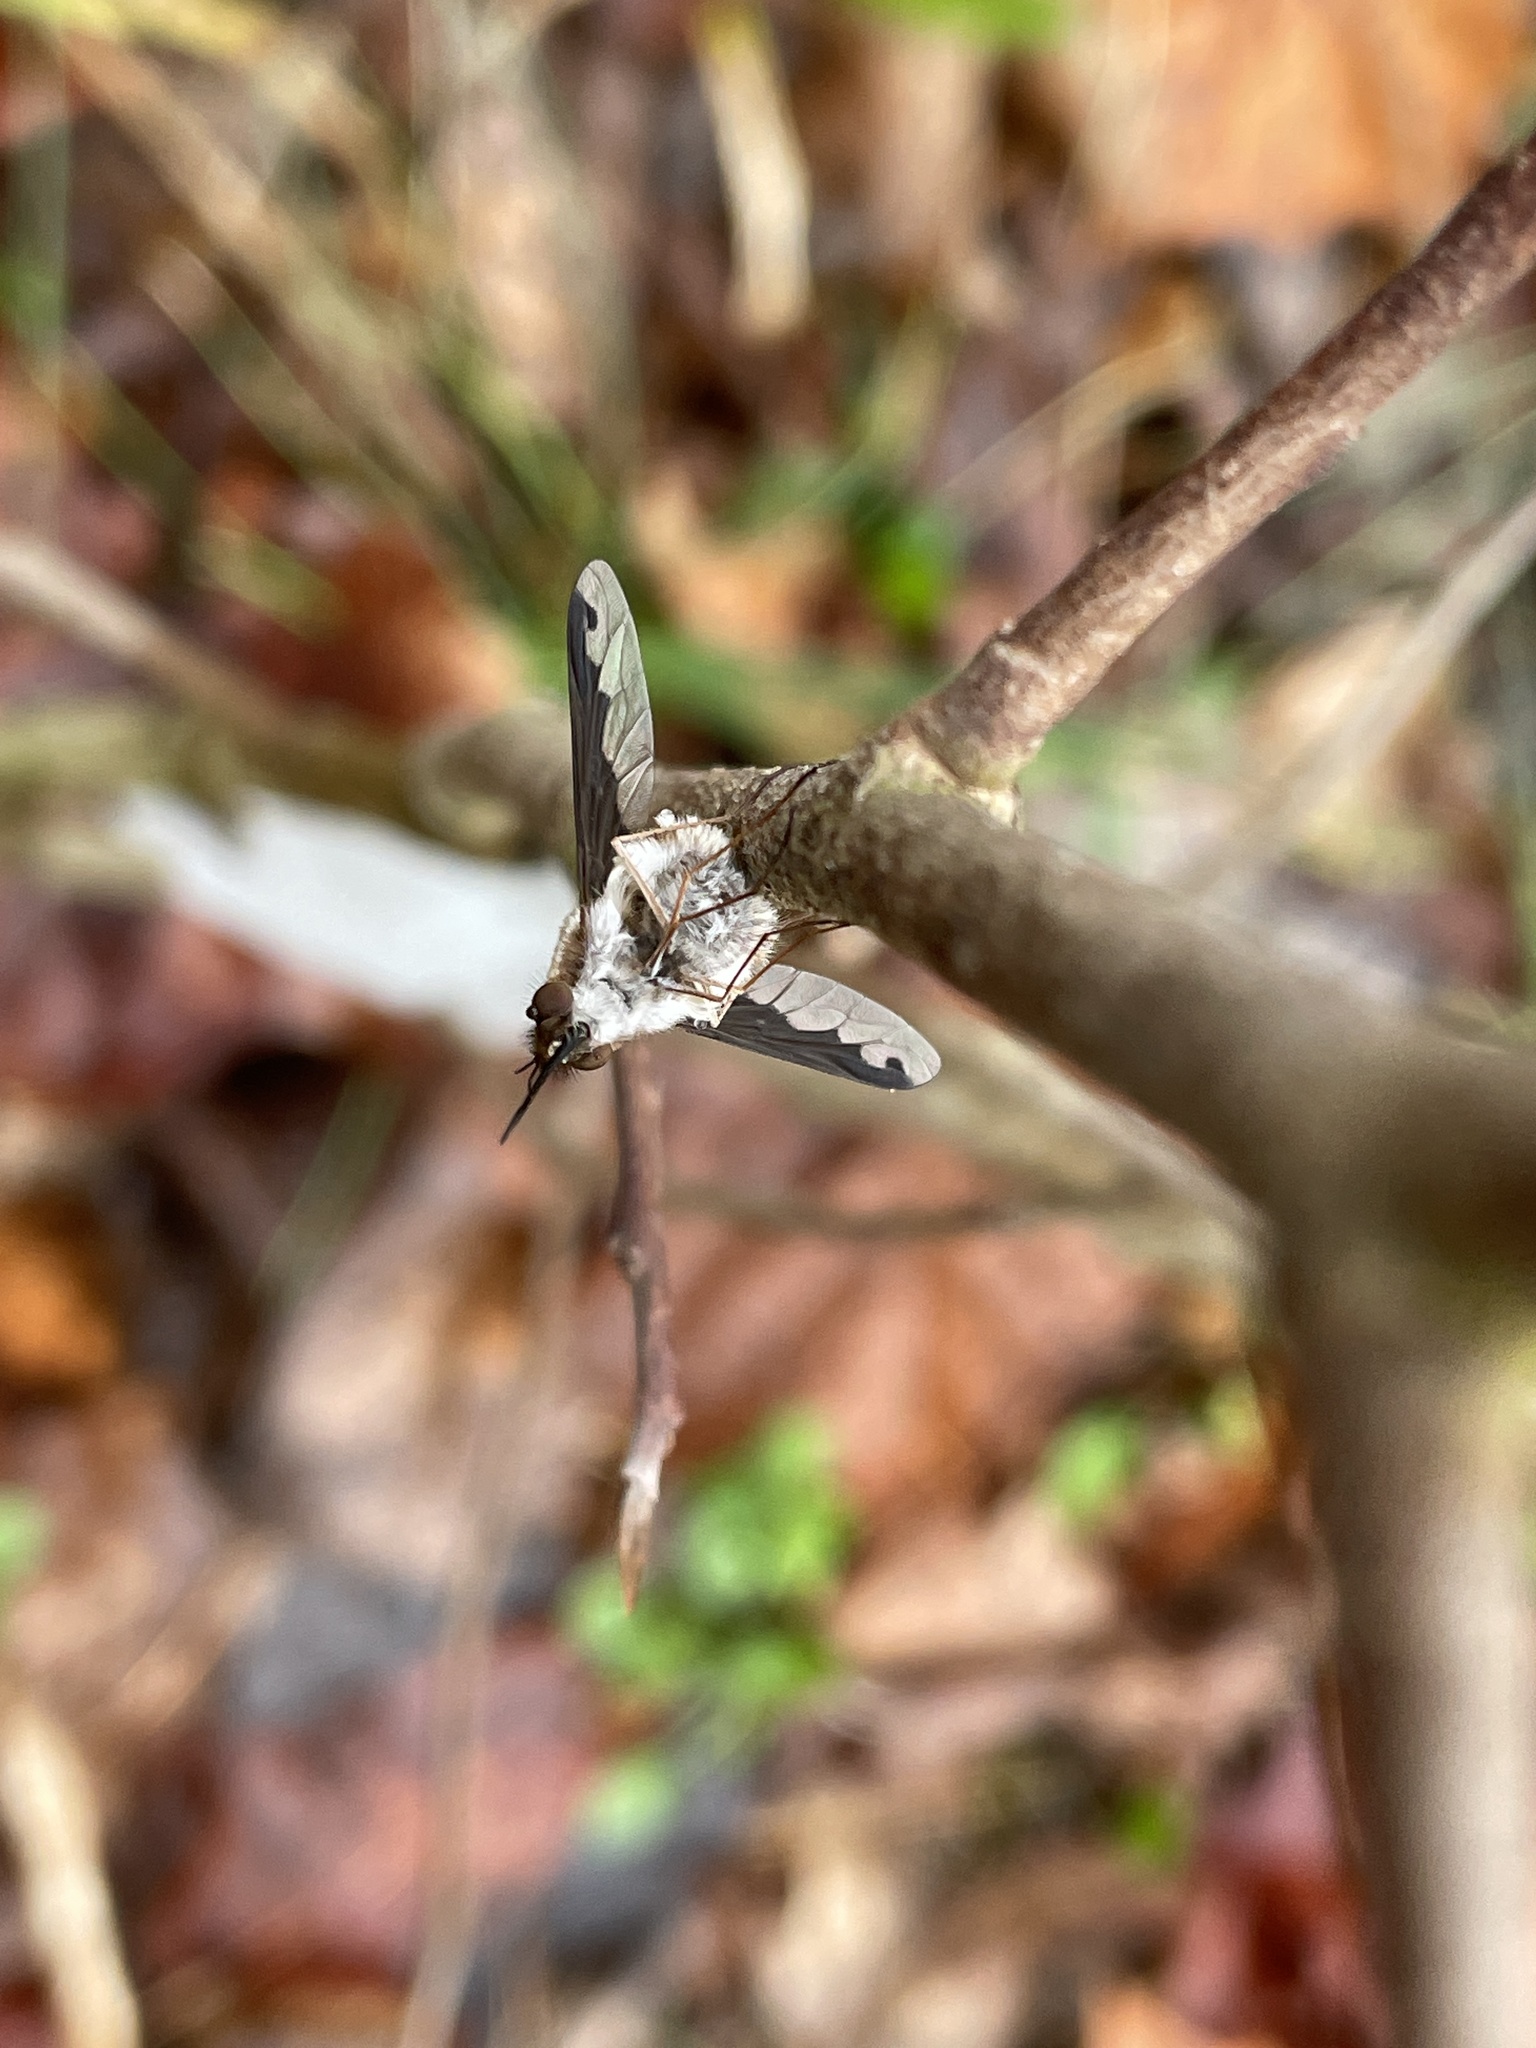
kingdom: Animalia
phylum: Arthropoda
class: Insecta
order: Diptera
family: Bombyliidae
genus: Bombylius
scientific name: Bombylius major
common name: Bee fly
